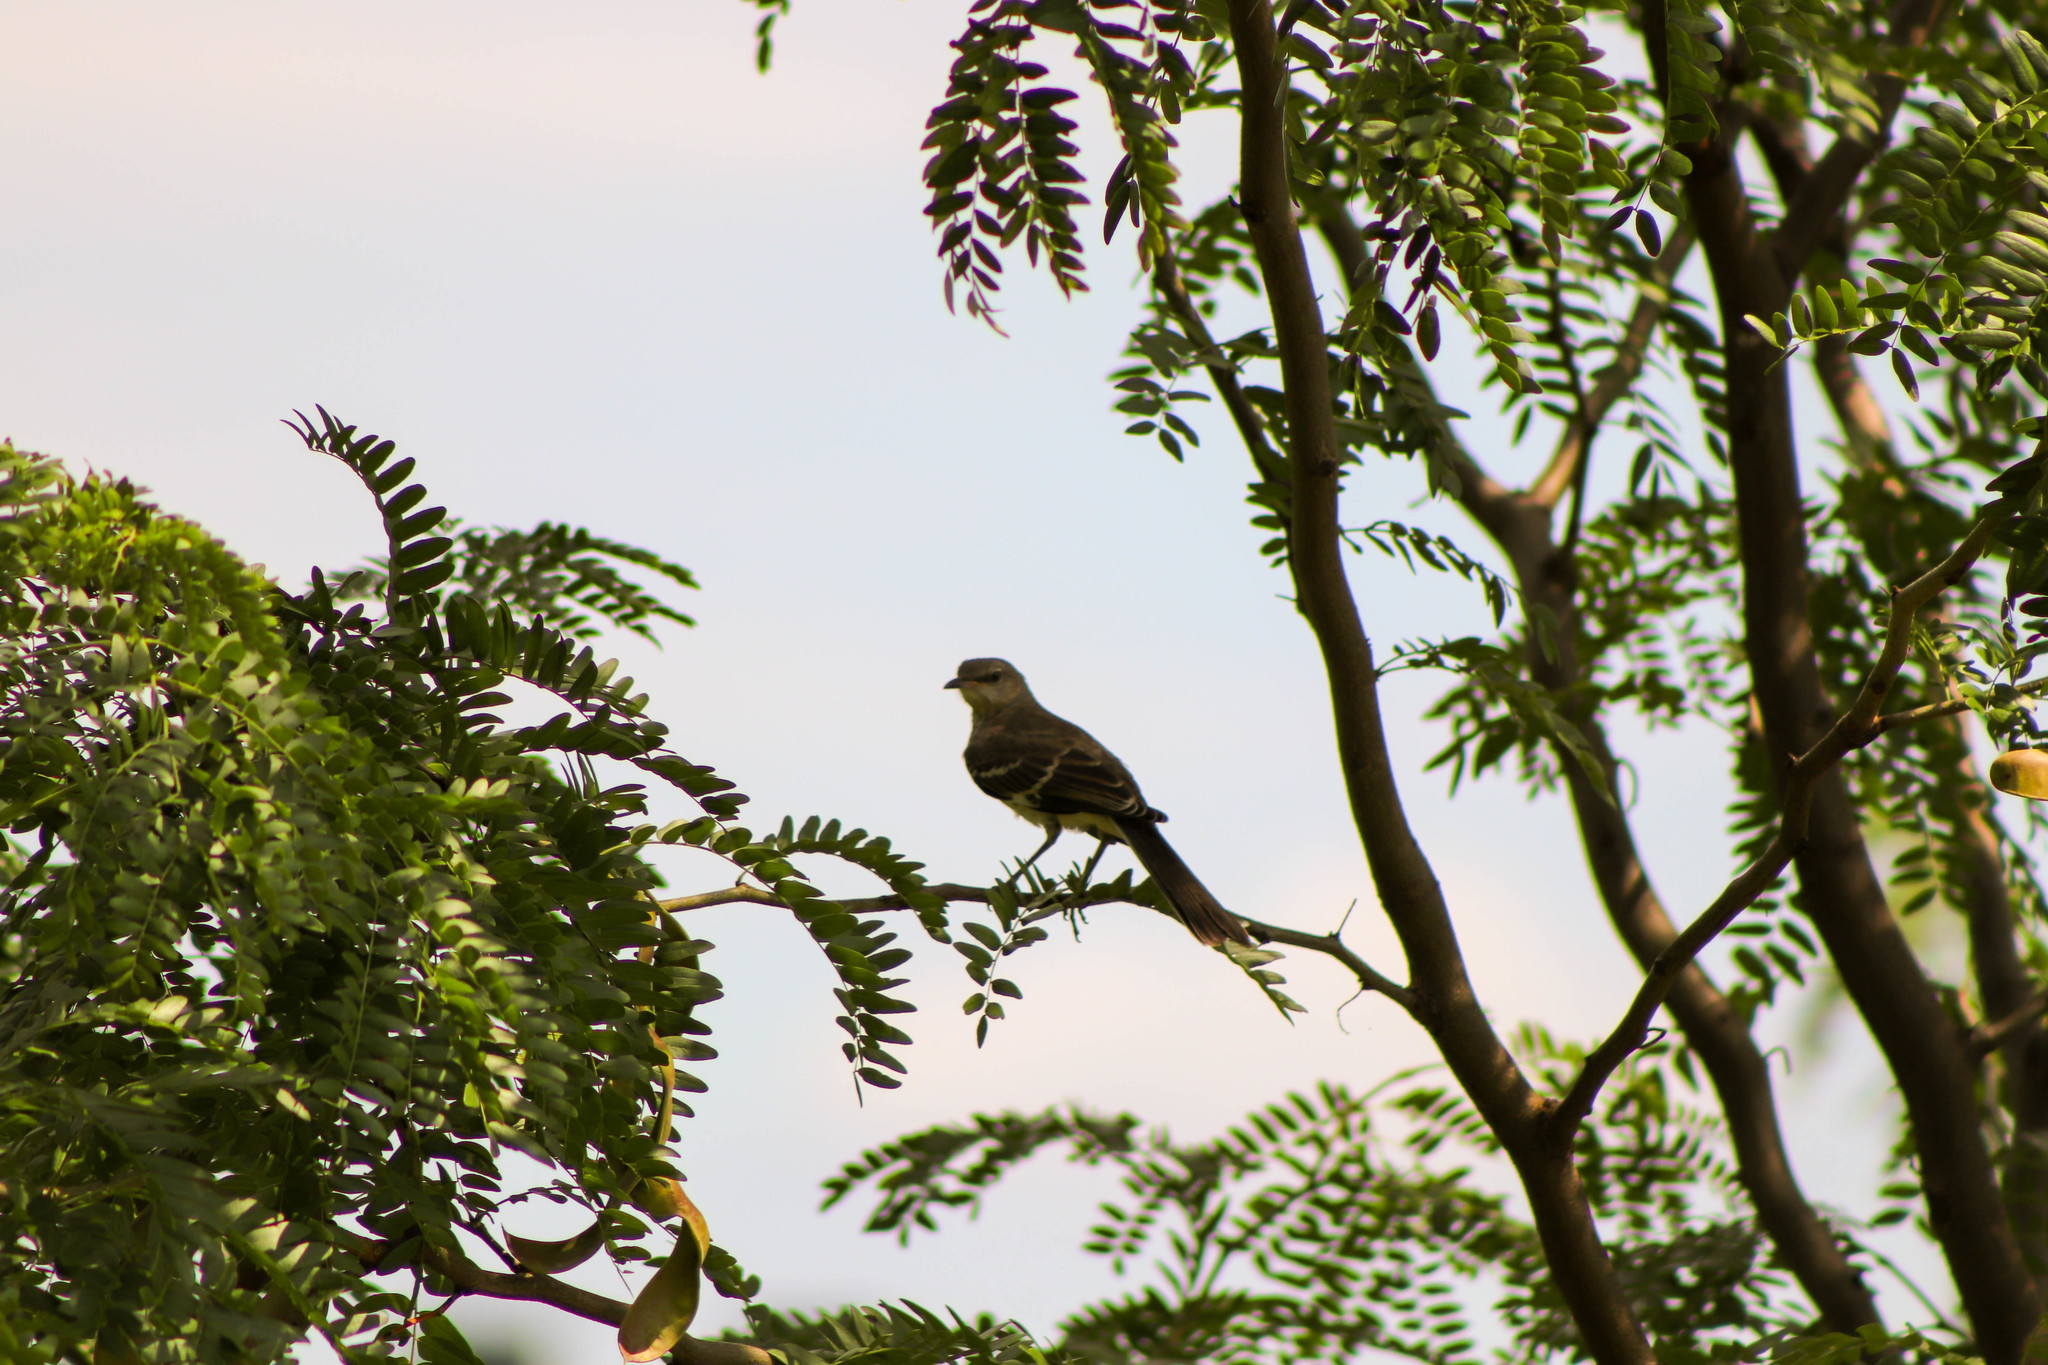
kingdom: Animalia
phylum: Chordata
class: Aves
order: Passeriformes
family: Mimidae
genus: Mimus
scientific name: Mimus polyglottos
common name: Northern mockingbird
